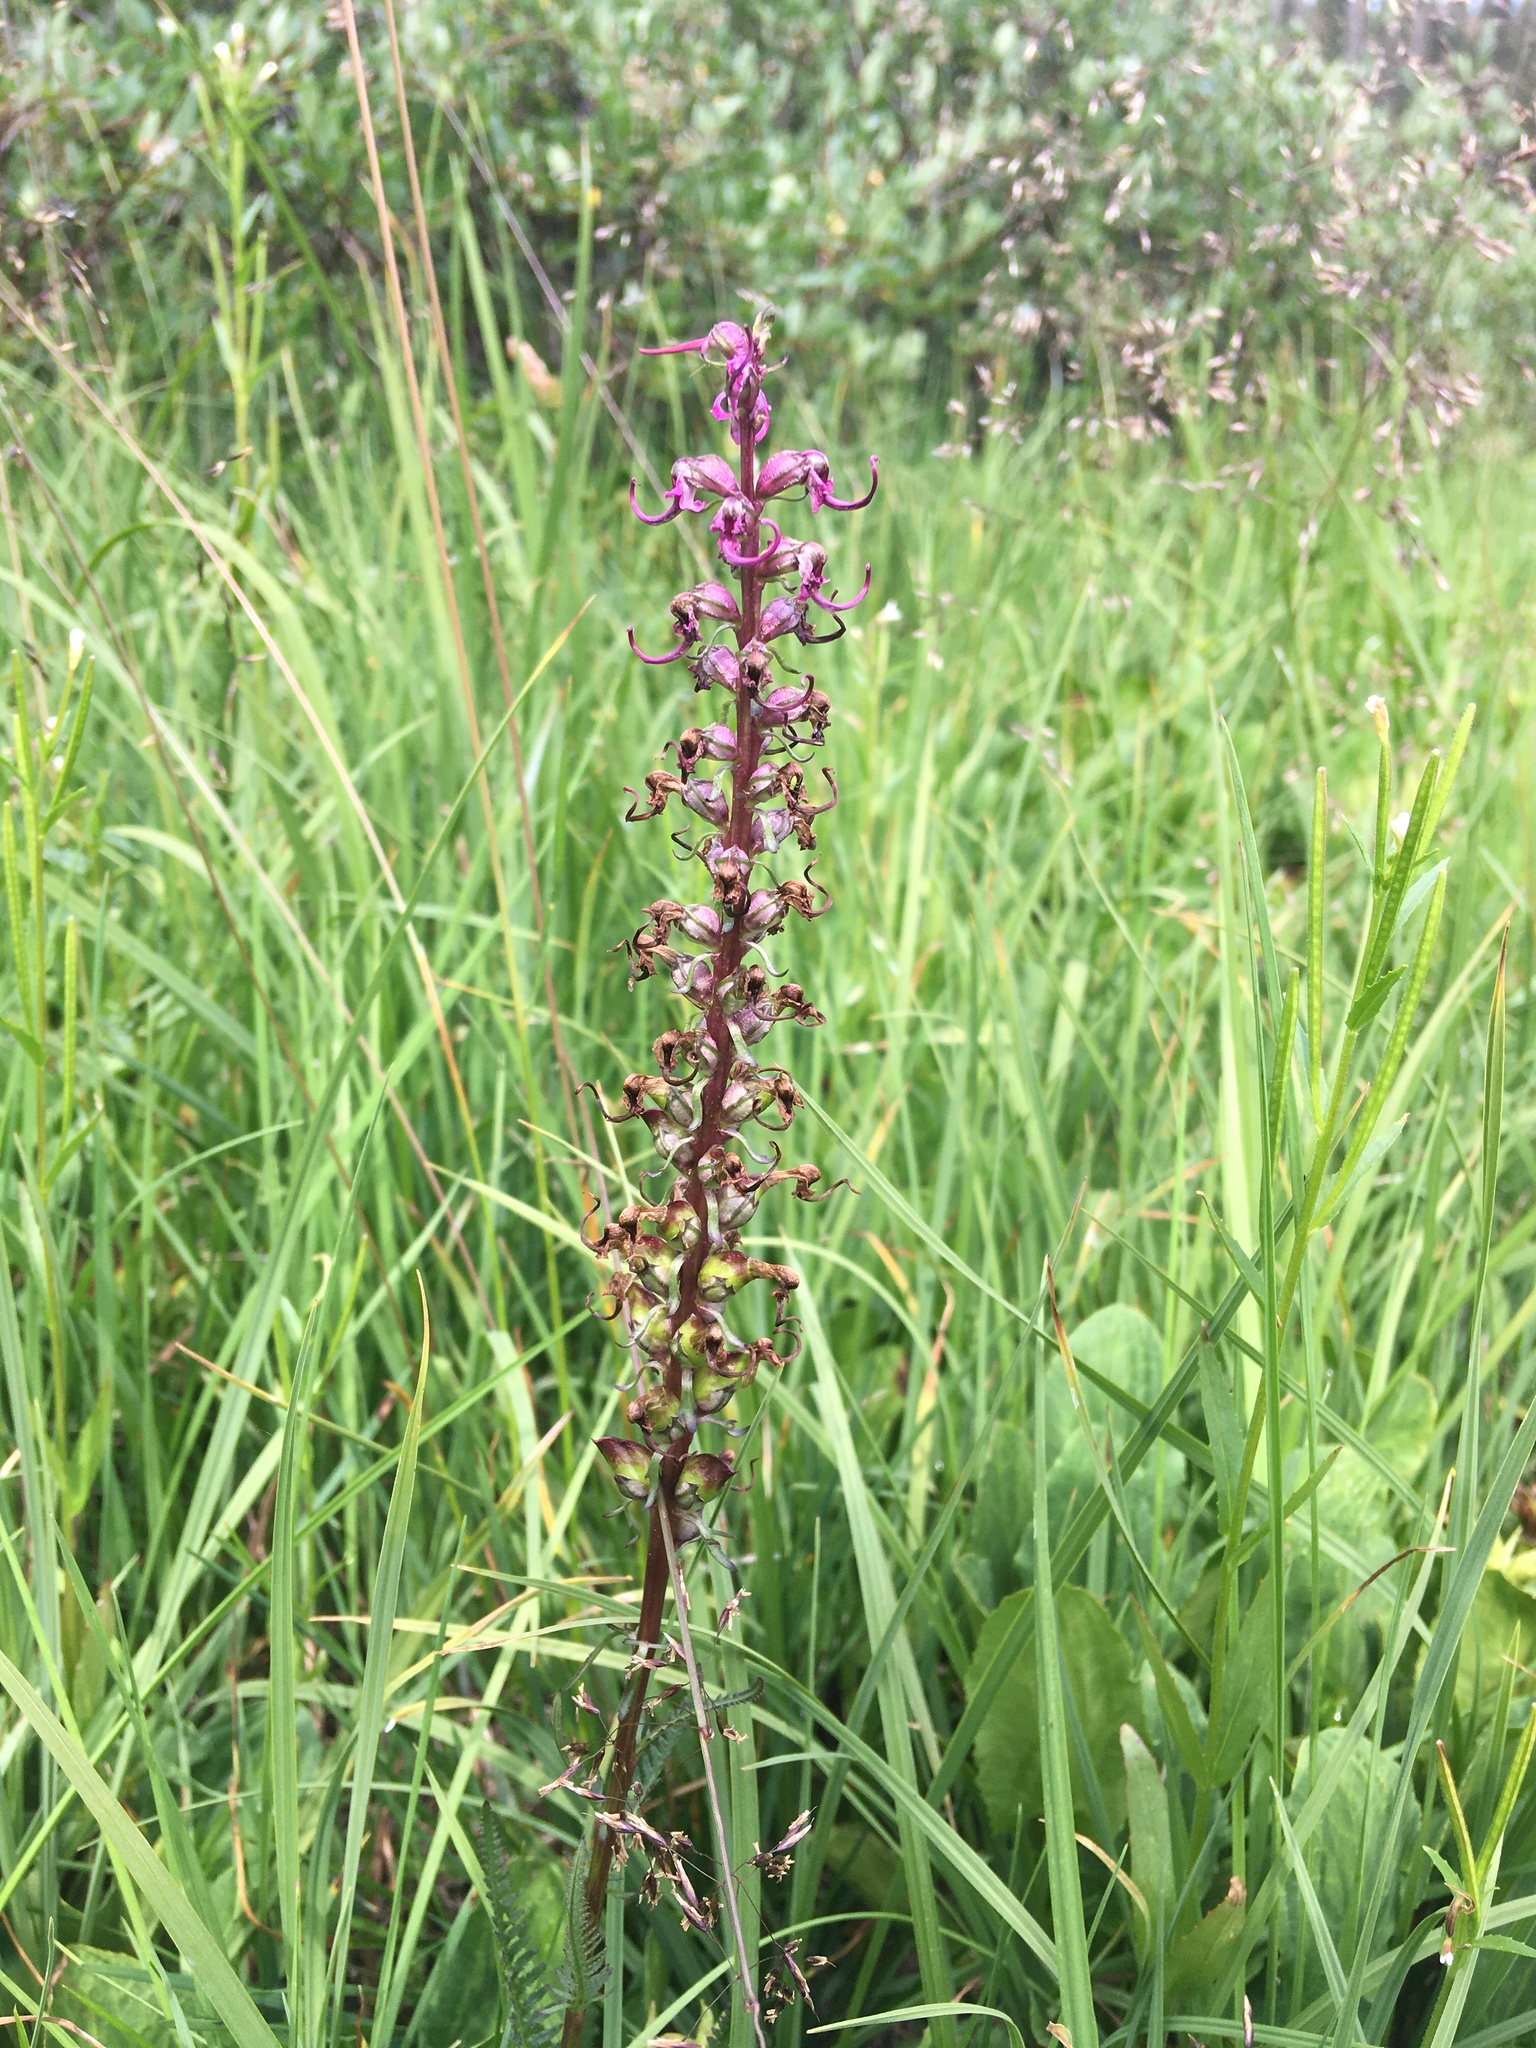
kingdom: Plantae
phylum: Tracheophyta
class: Magnoliopsida
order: Lamiales
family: Orobanchaceae
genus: Pedicularis
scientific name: Pedicularis groenlandica
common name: Elephant's-head
